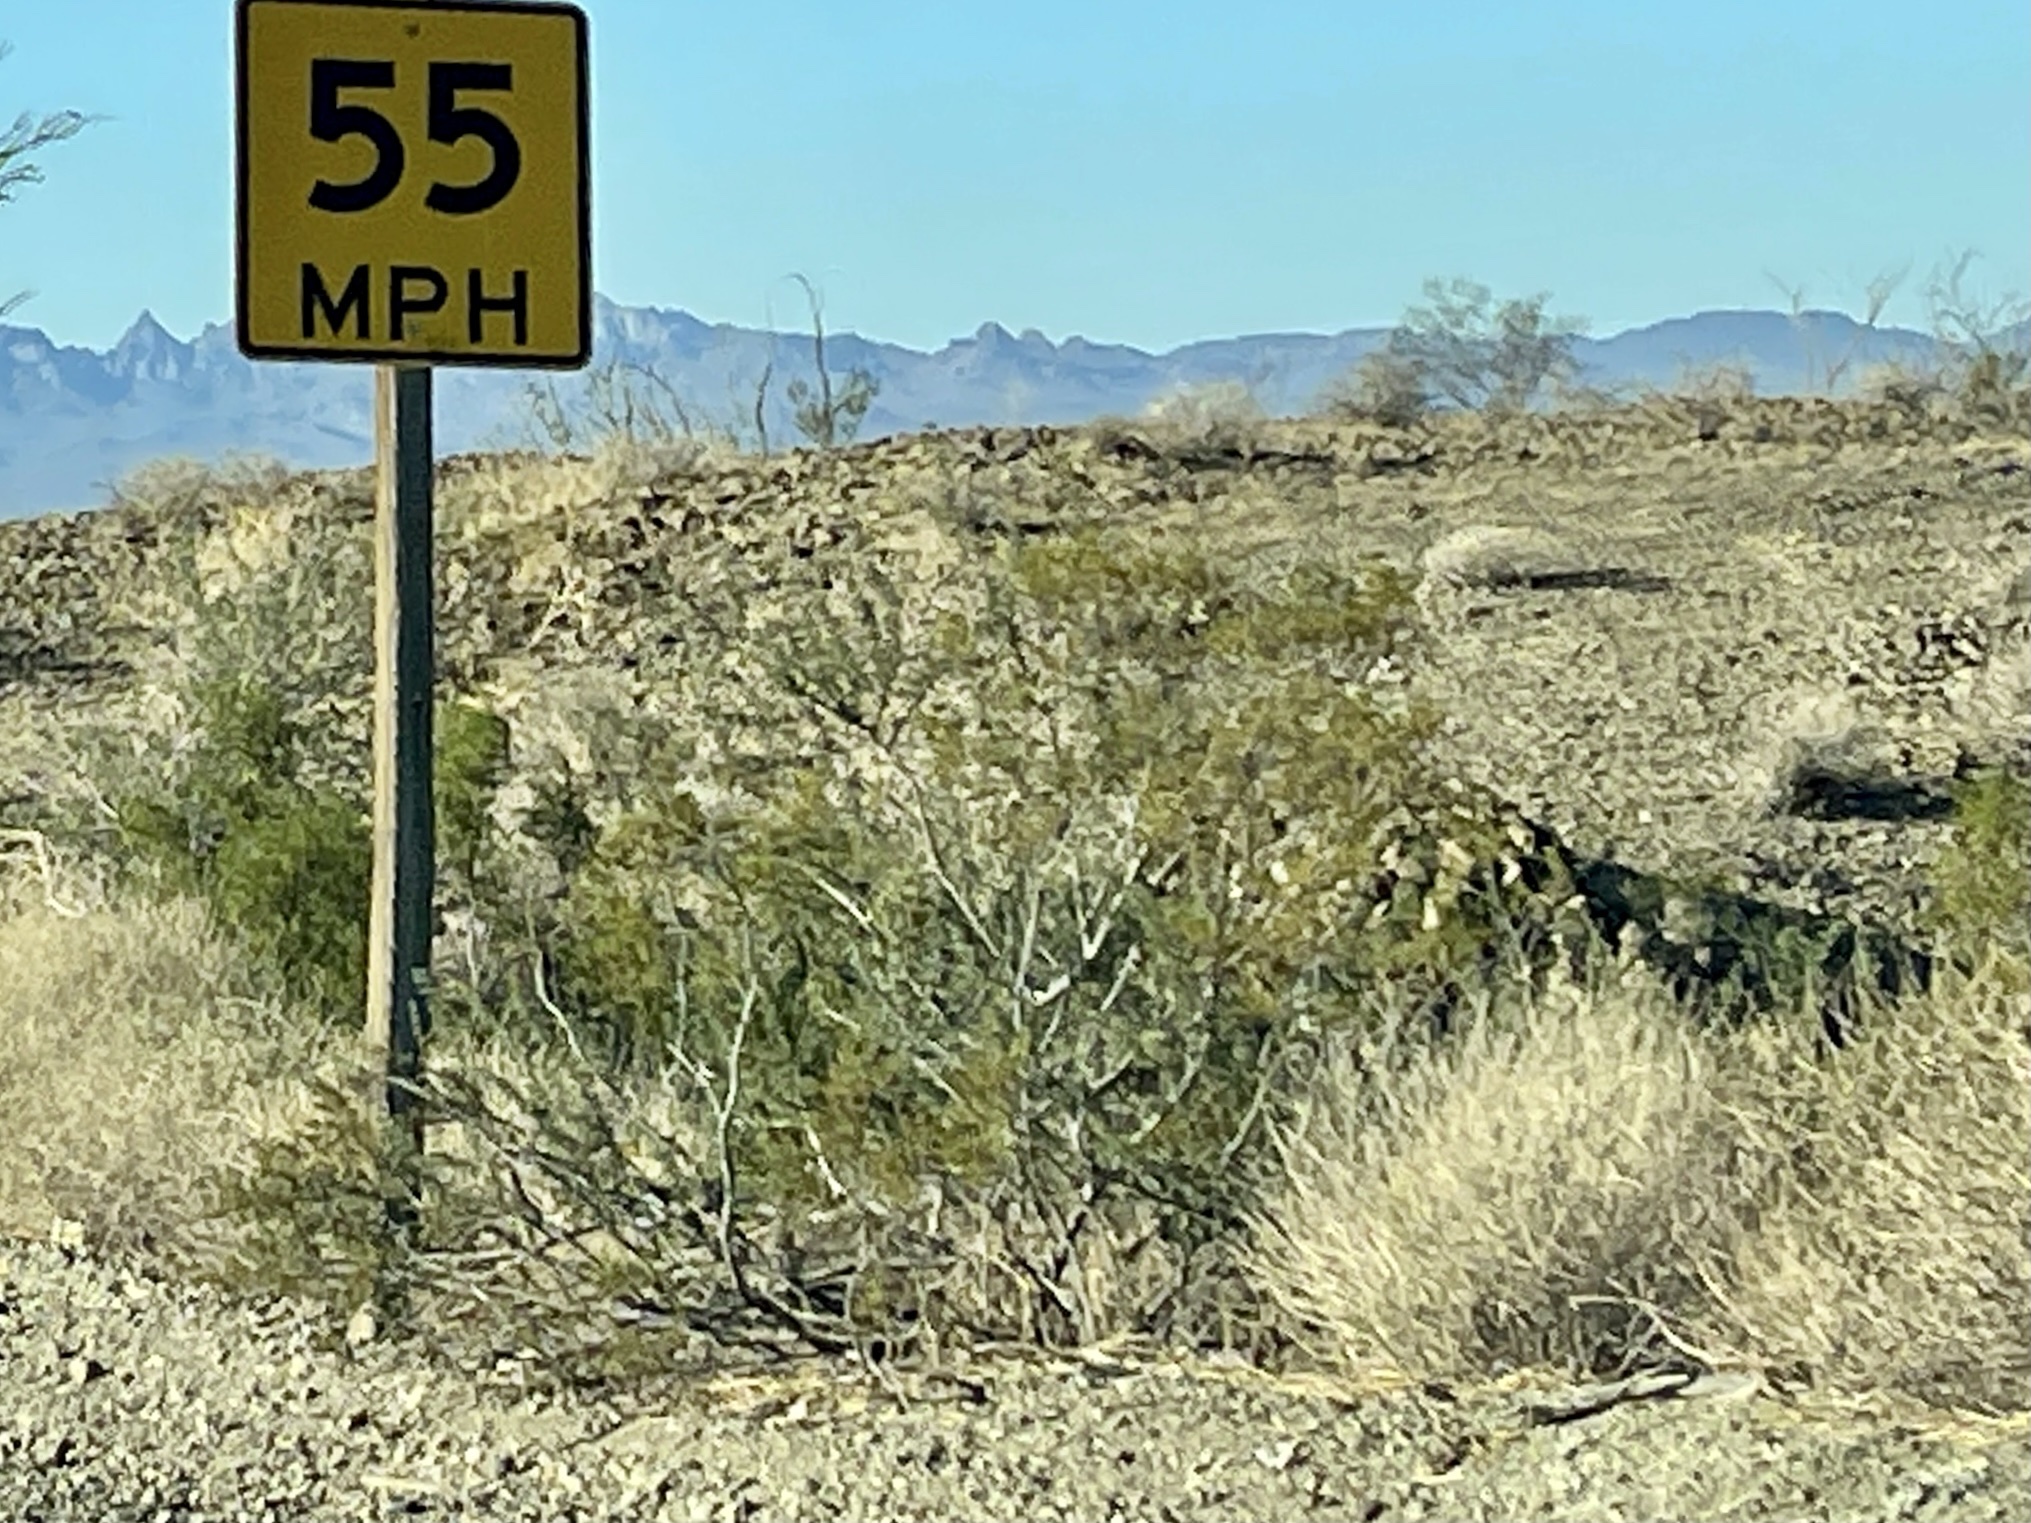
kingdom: Plantae
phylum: Tracheophyta
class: Magnoliopsida
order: Zygophyllales
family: Zygophyllaceae
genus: Larrea
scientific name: Larrea tridentata
